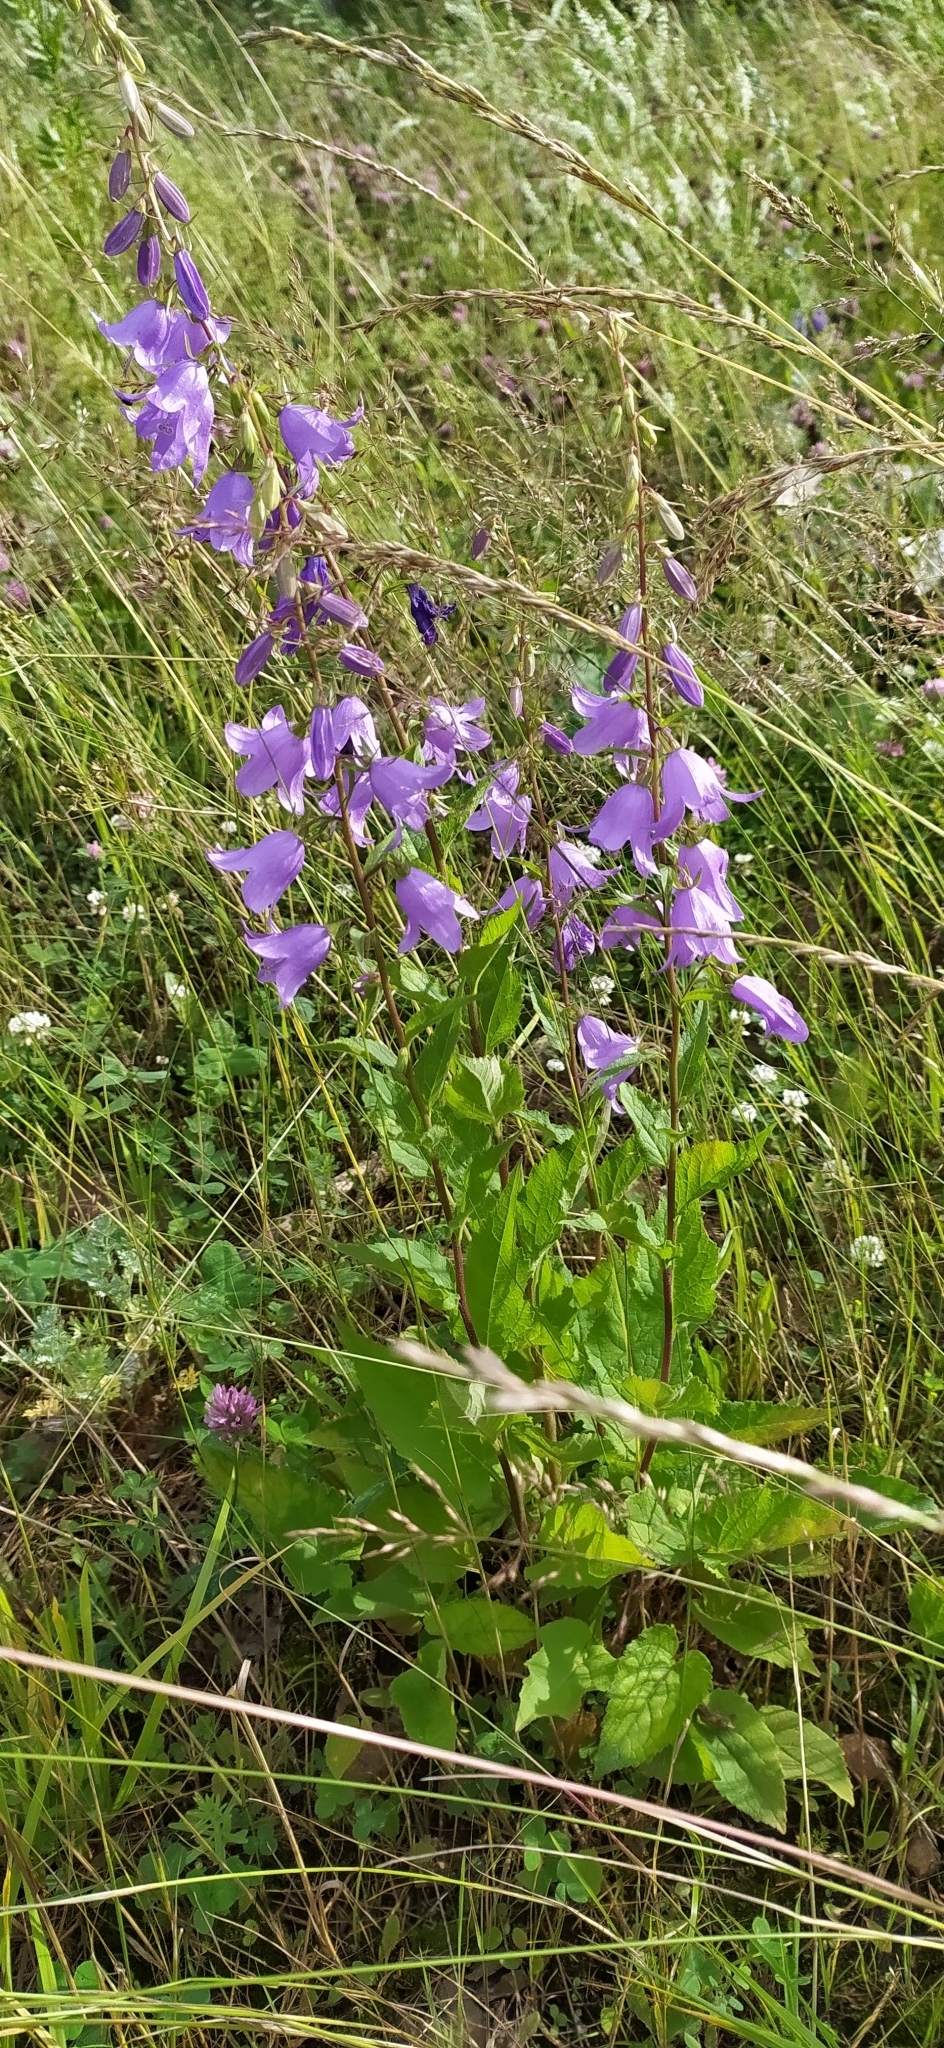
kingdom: Plantae
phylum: Tracheophyta
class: Magnoliopsida
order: Asterales
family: Campanulaceae
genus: Campanula
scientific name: Campanula rapunculoides
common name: Creeping bellflower
